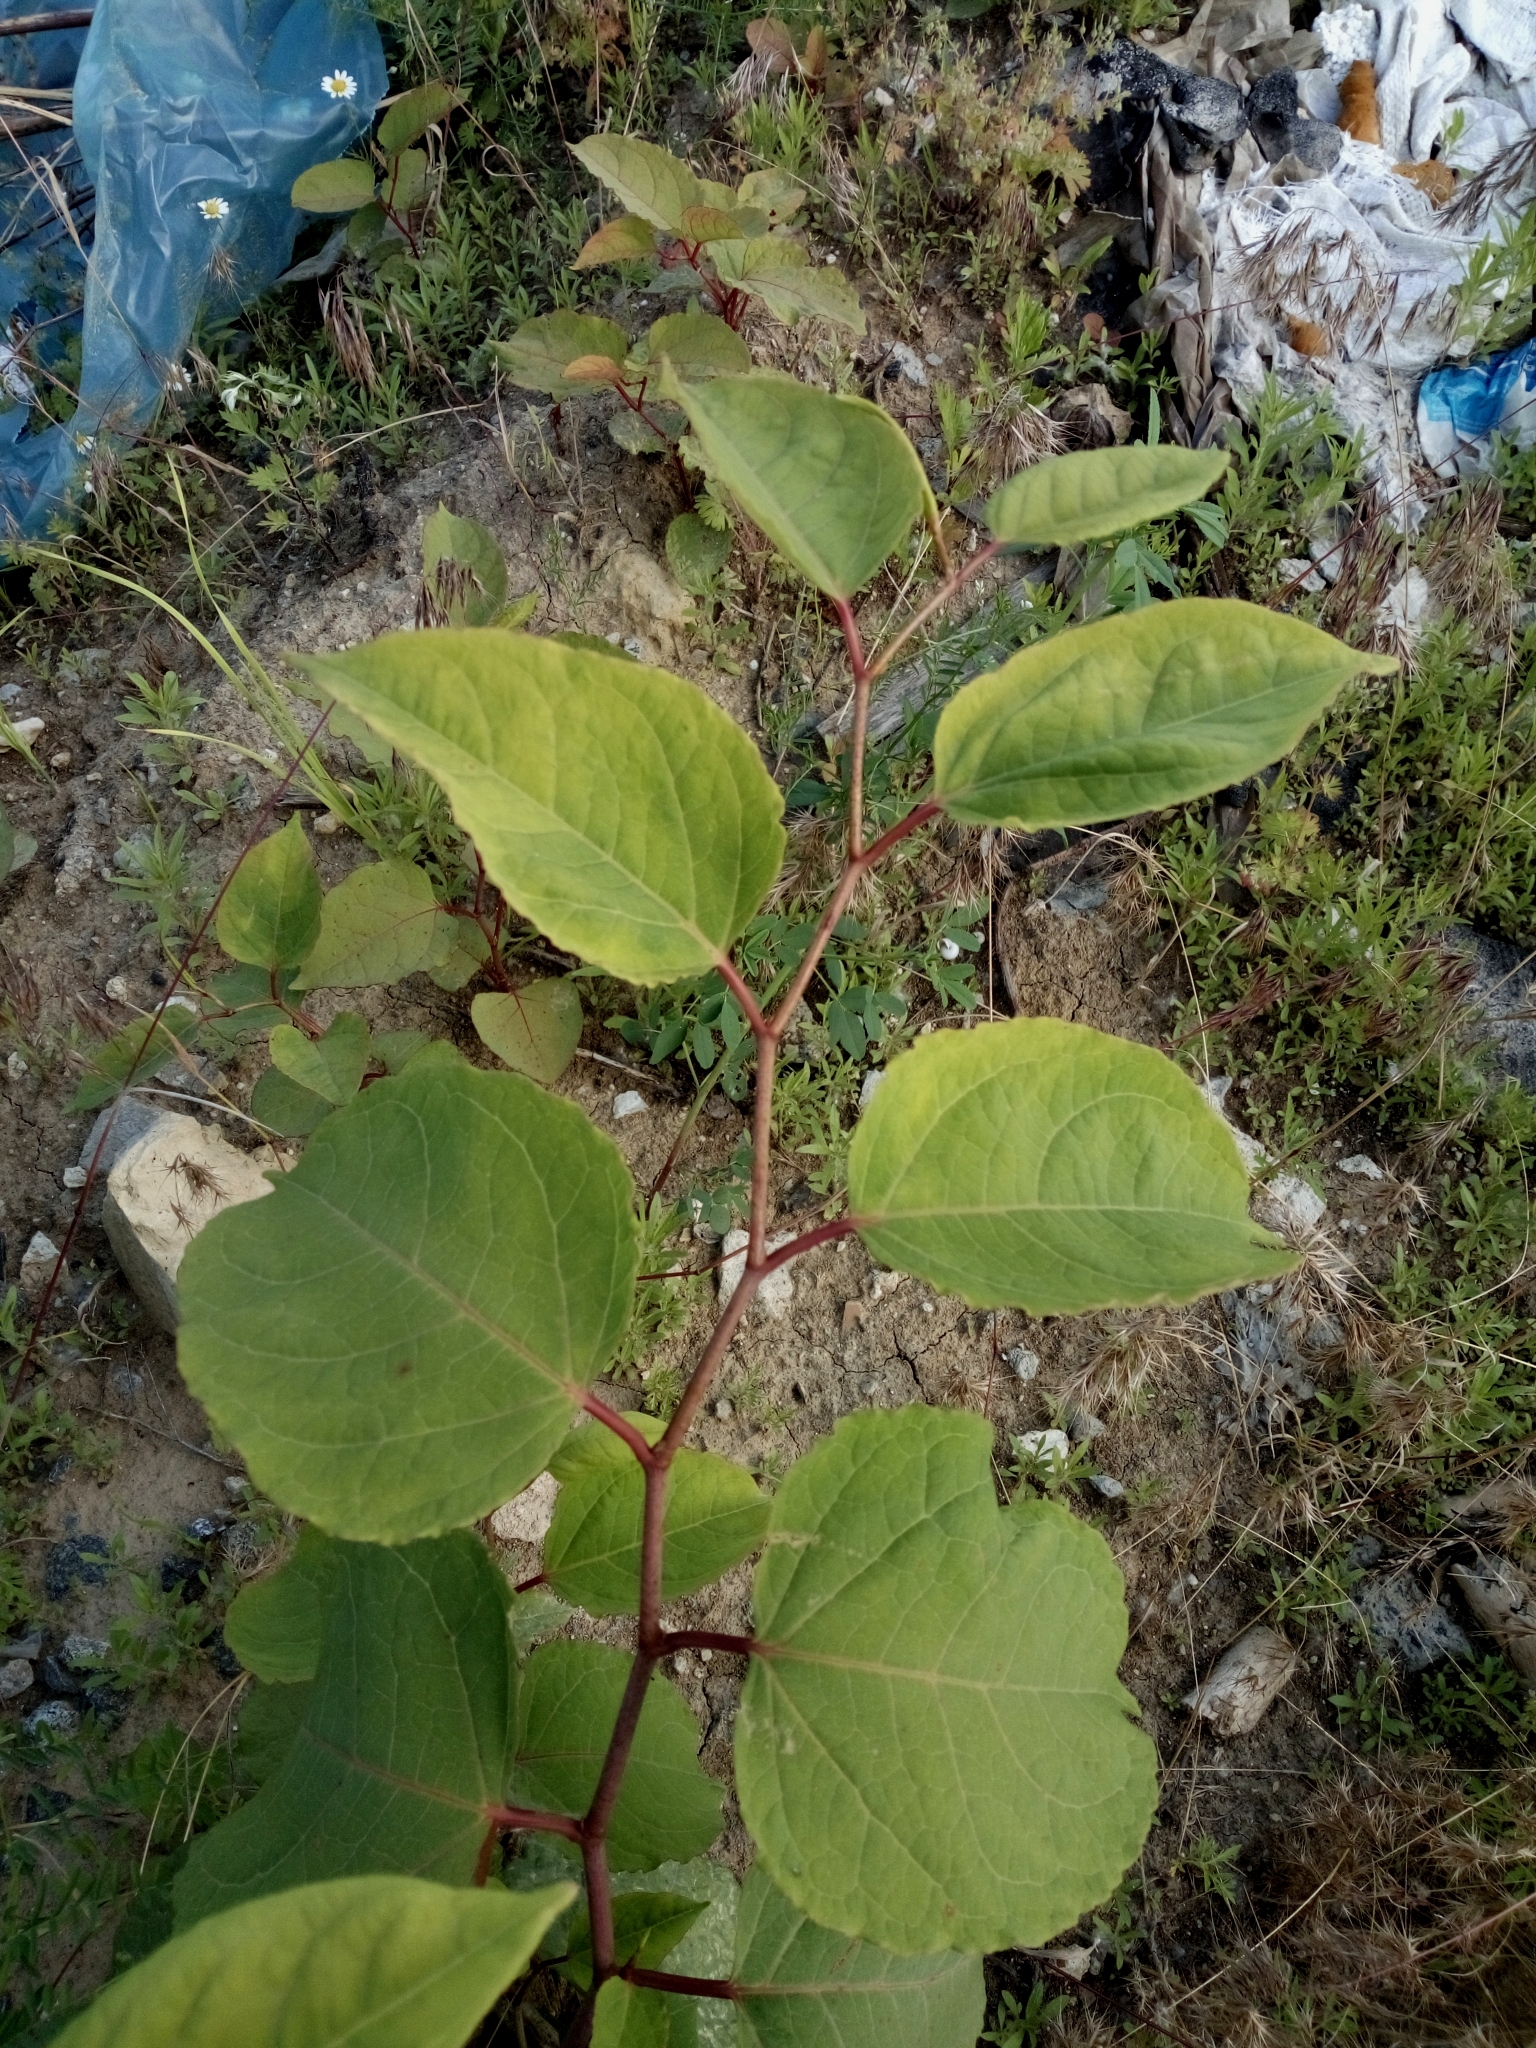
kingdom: Plantae
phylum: Tracheophyta
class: Magnoliopsida
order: Caryophyllales
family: Polygonaceae
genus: Reynoutria
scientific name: Reynoutria bohemica
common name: Bohemian knotweed
